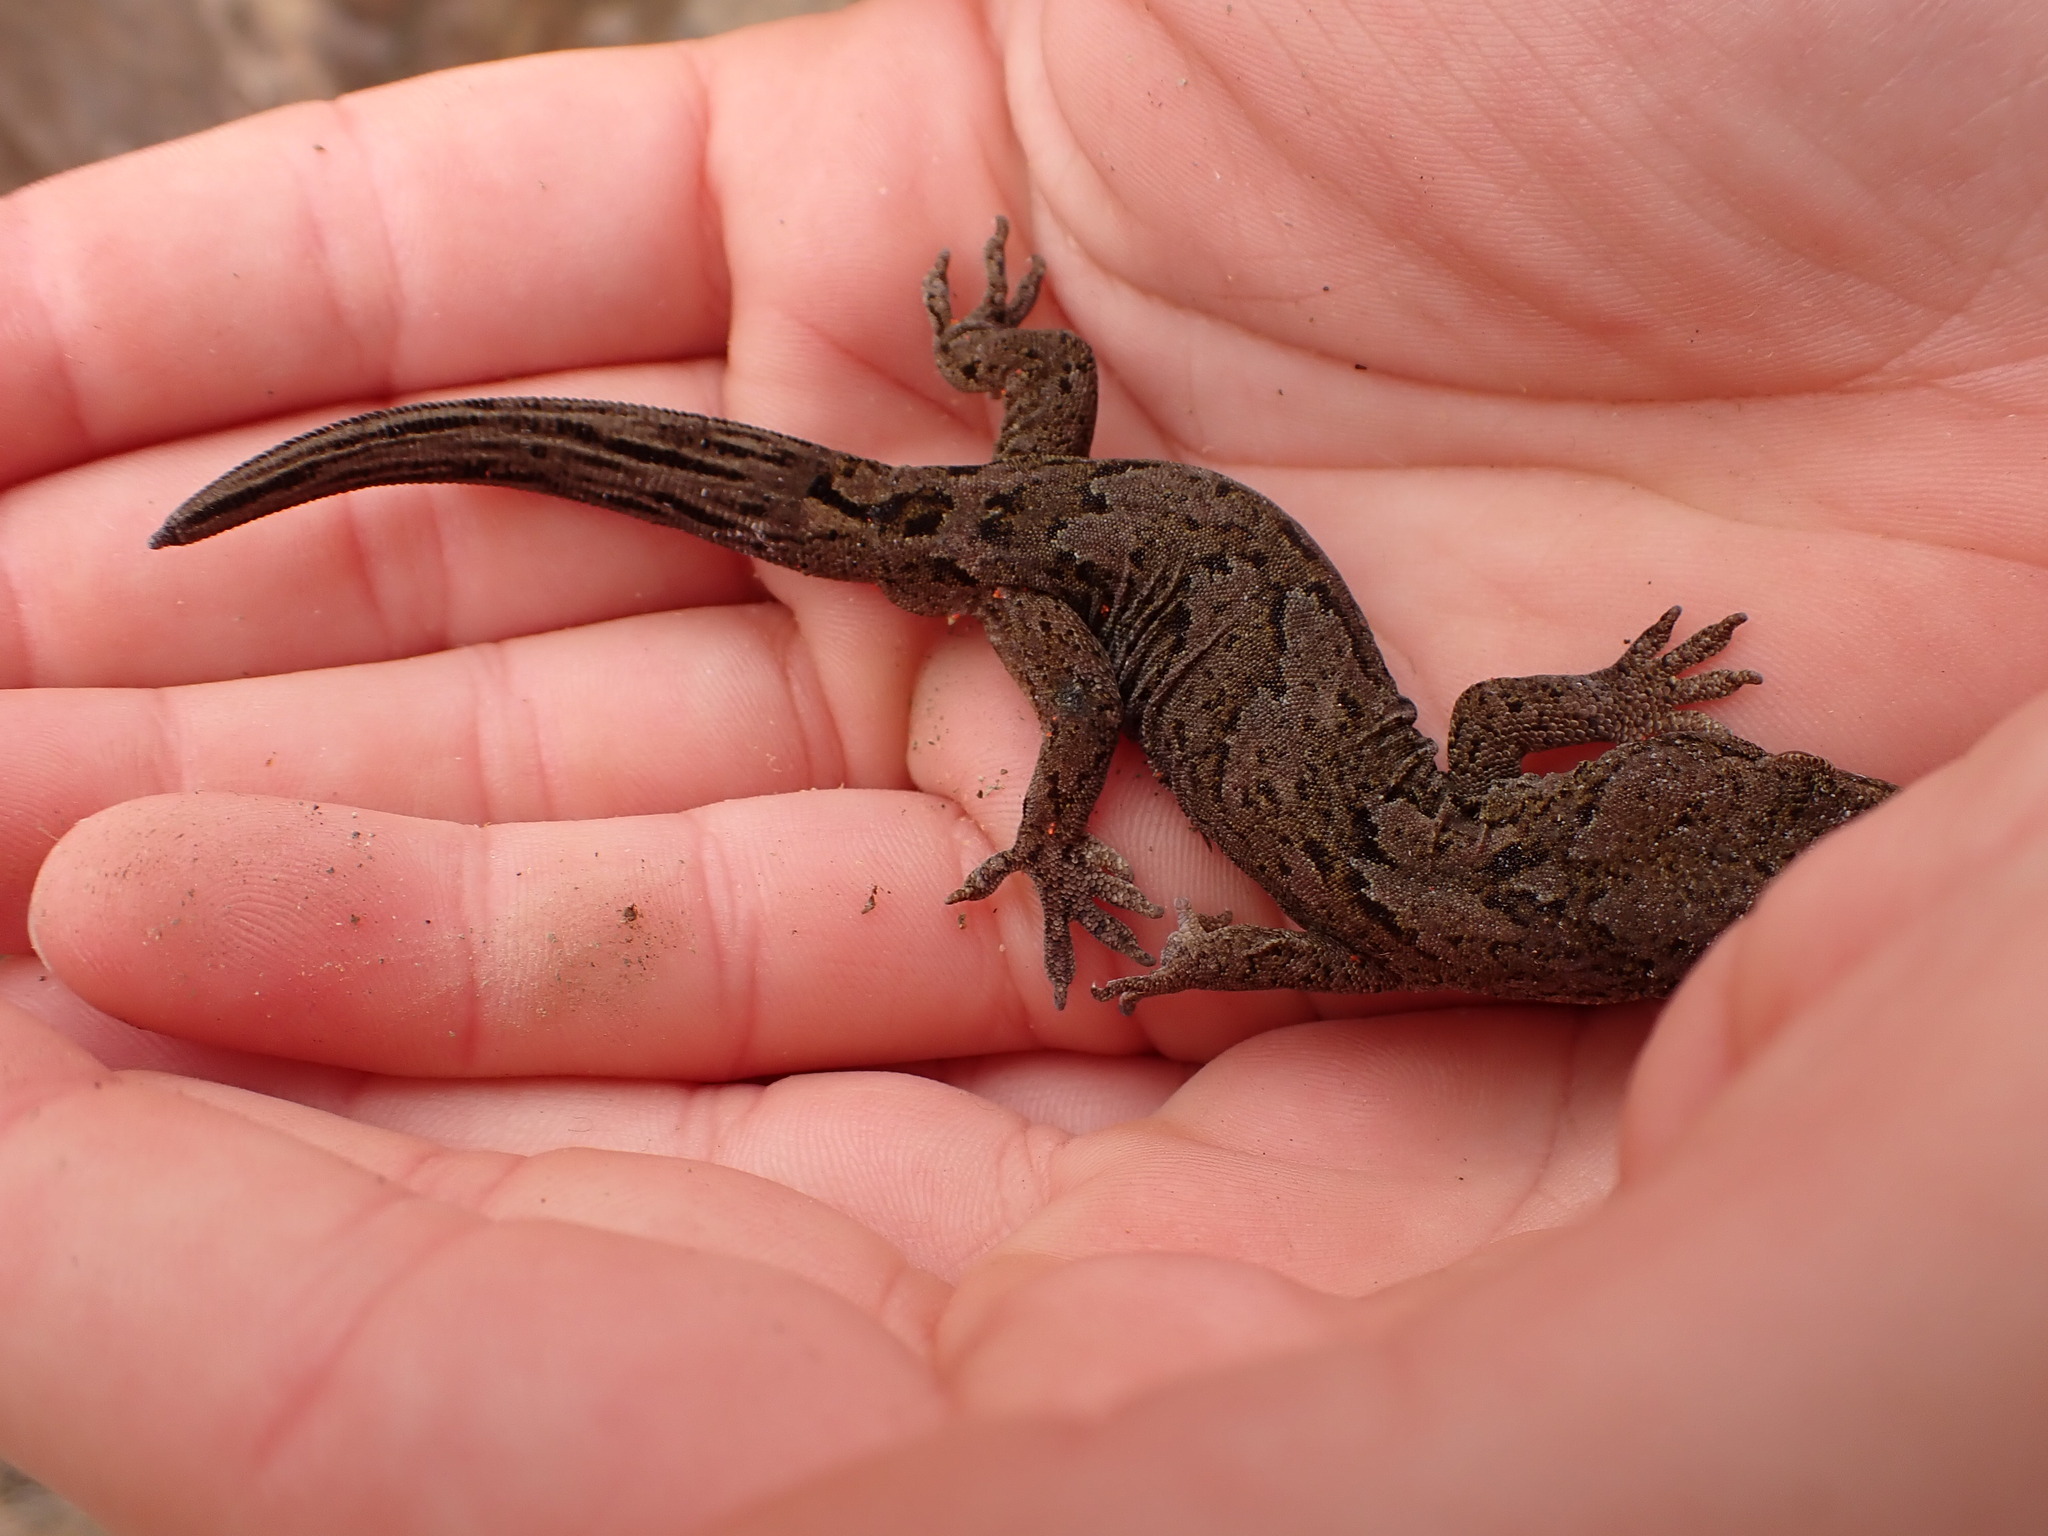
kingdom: Animalia
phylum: Chordata
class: Squamata
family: Diplodactylidae
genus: Woodworthia
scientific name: Woodworthia
